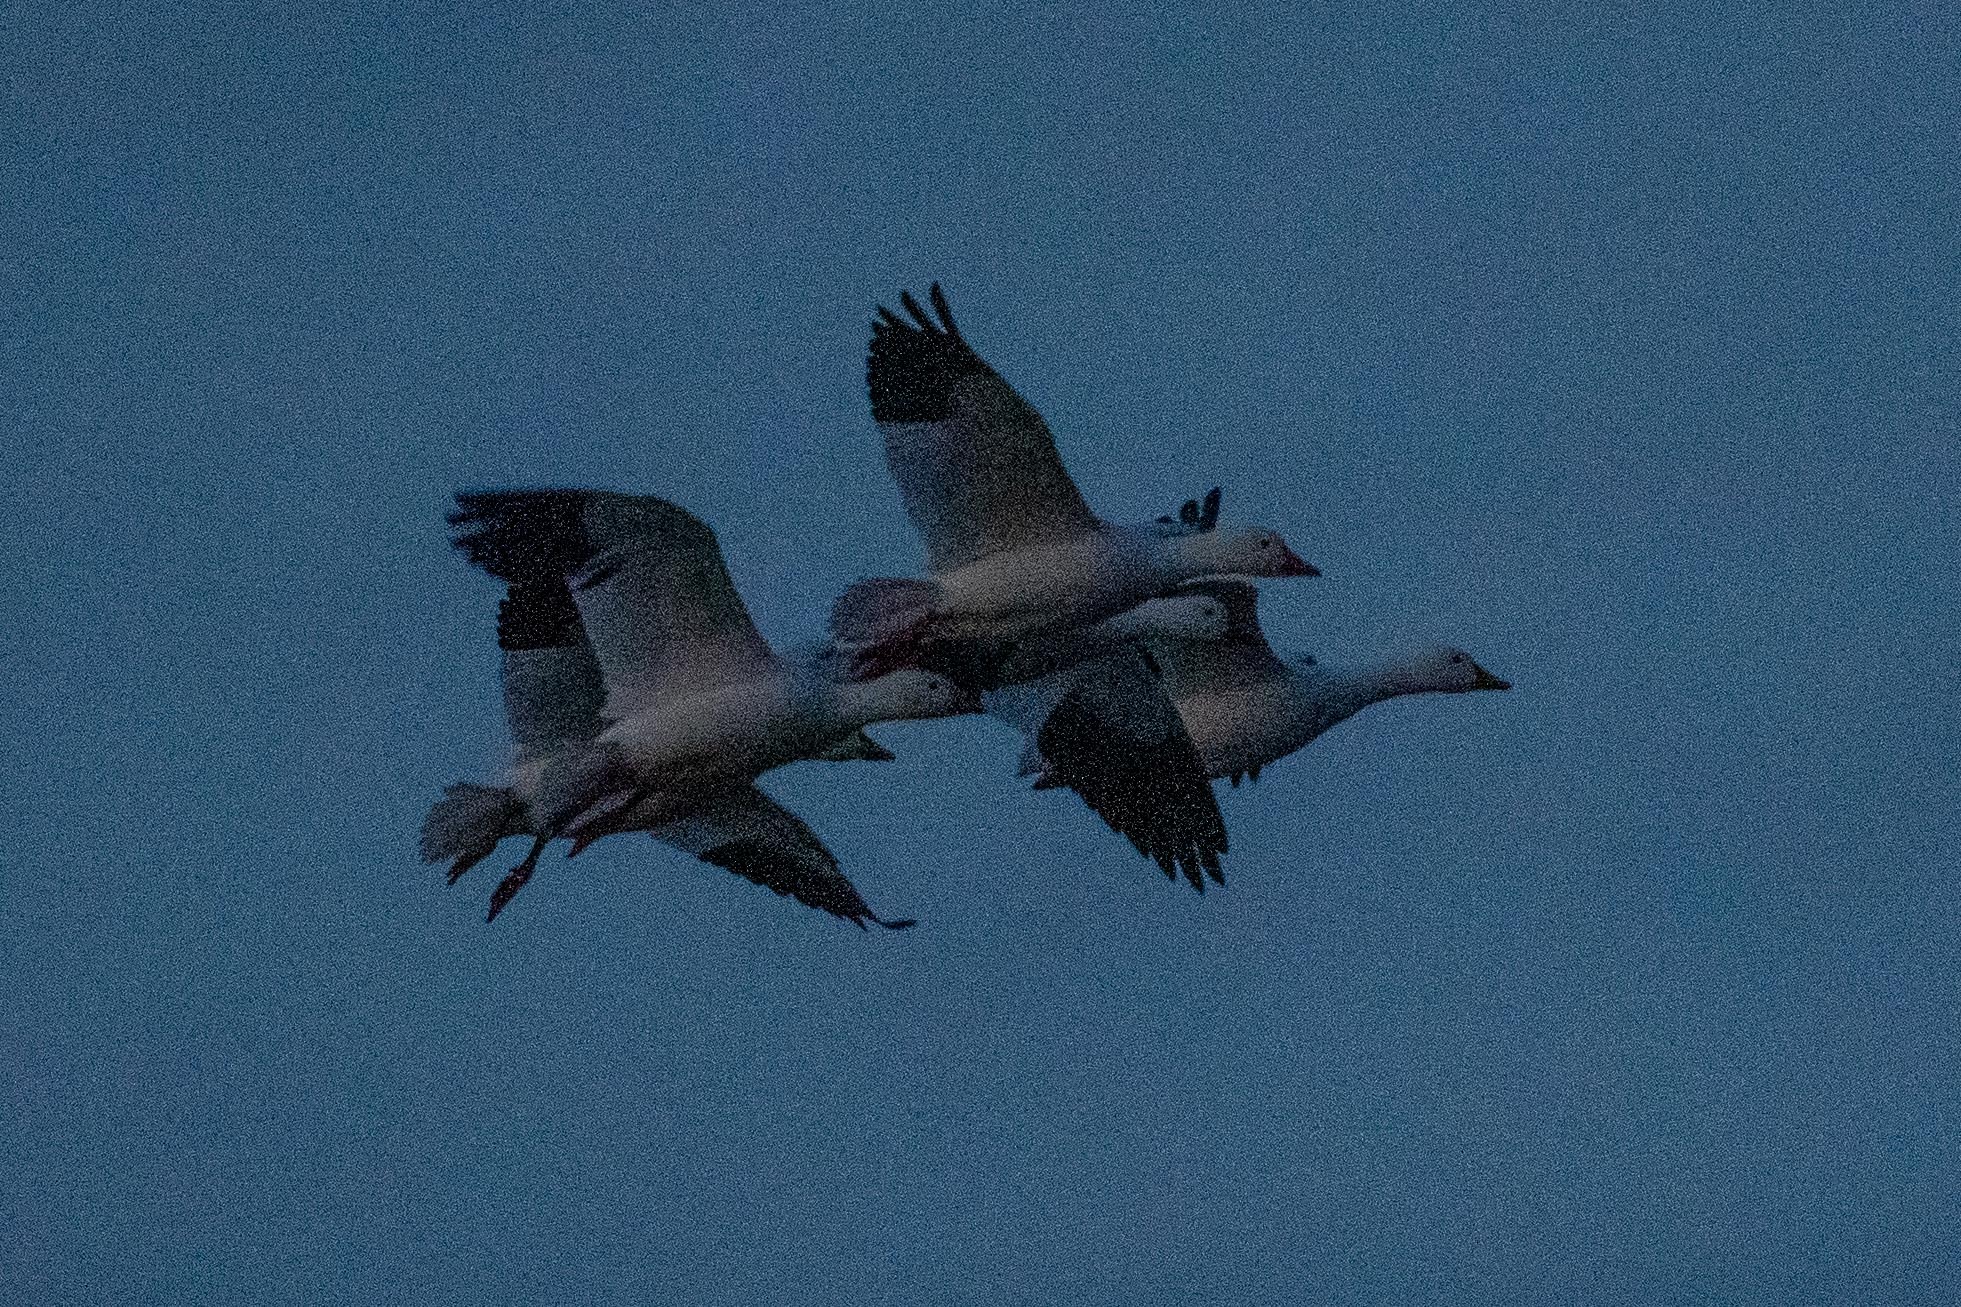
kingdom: Animalia
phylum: Chordata
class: Aves
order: Anseriformes
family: Anatidae
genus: Anser
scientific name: Anser caerulescens
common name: Snow goose
